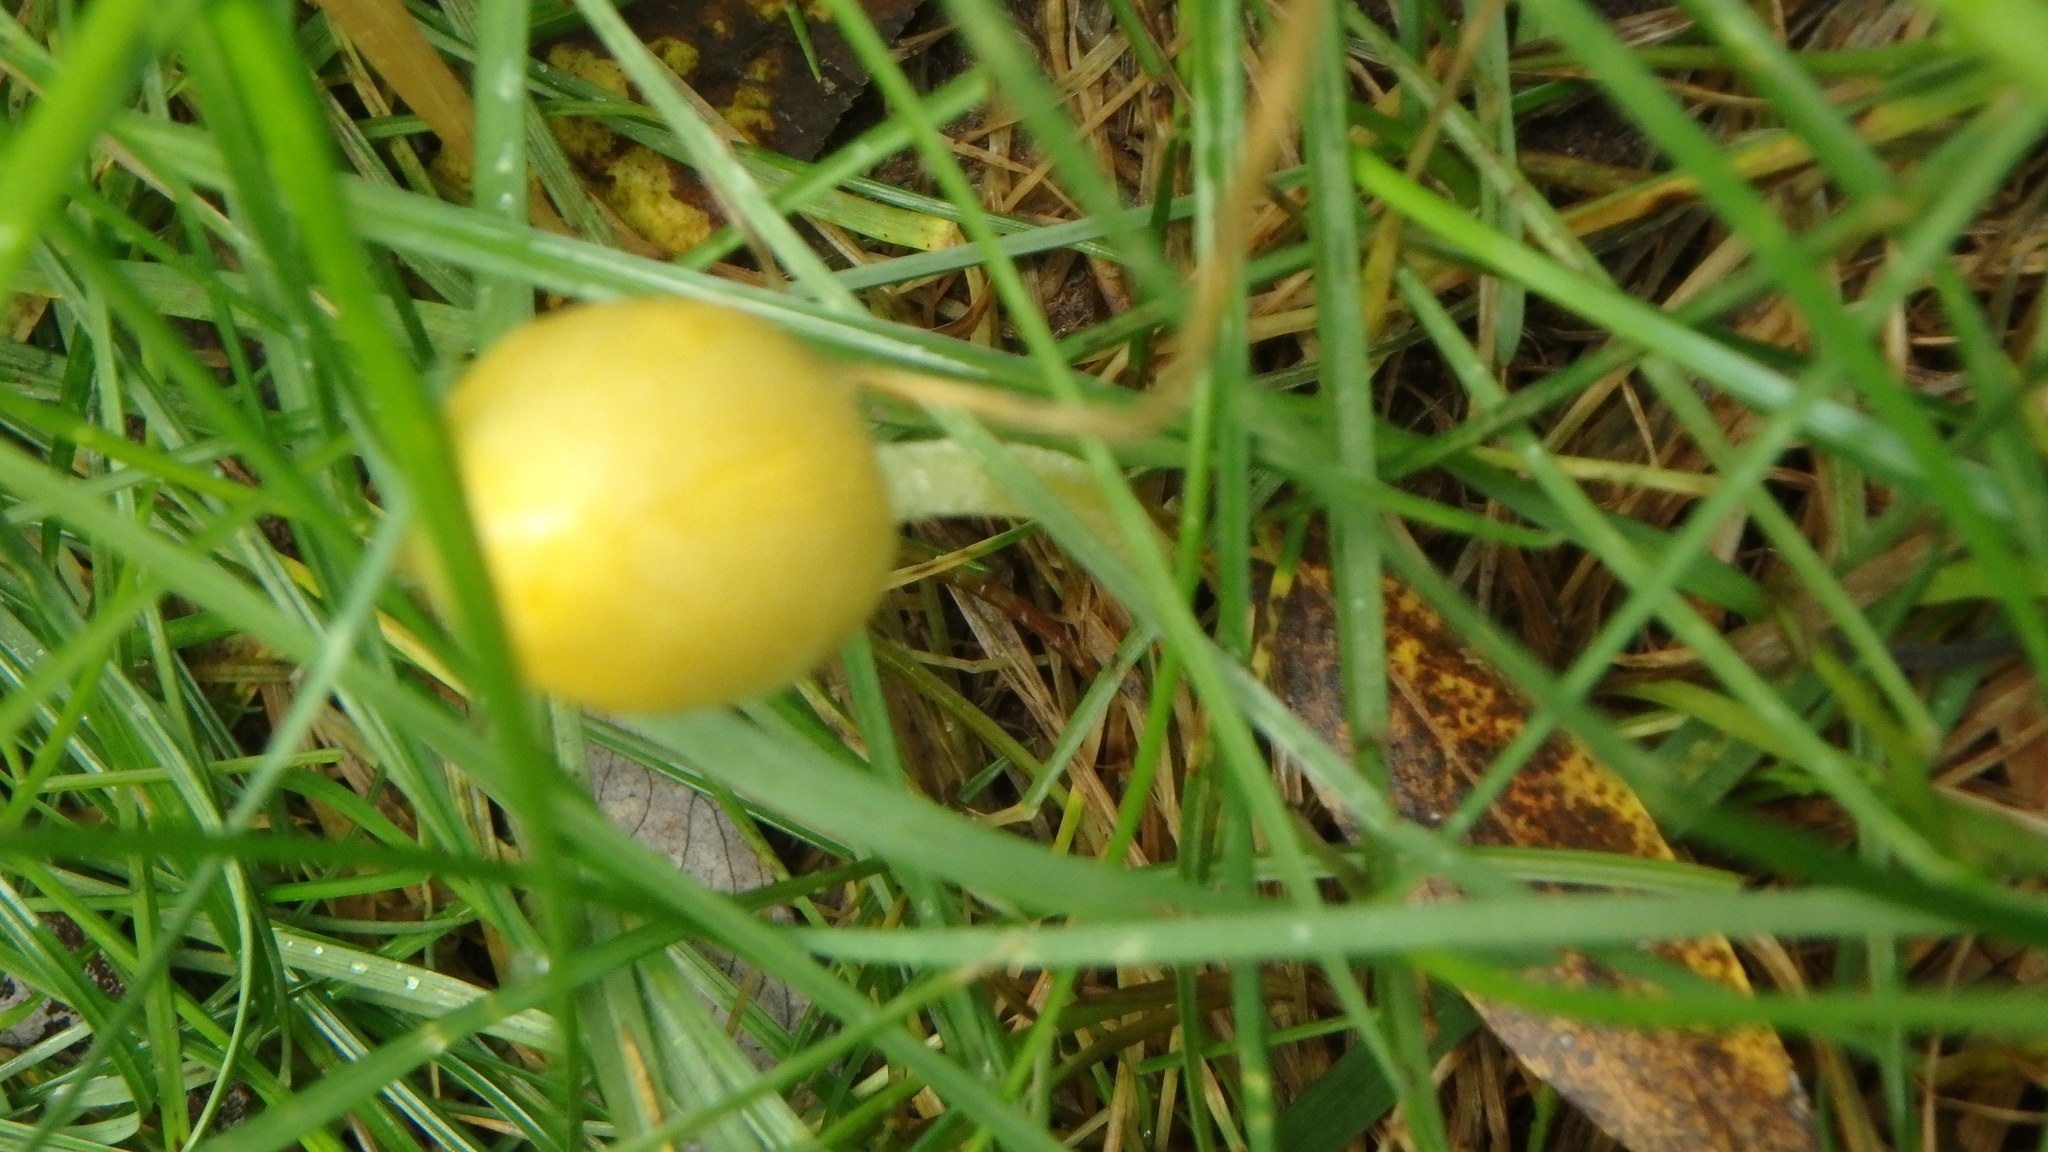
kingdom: Fungi
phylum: Basidiomycota
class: Agaricomycetes
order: Agaricales
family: Bolbitiaceae
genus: Bolbitius
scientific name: Bolbitius titubans
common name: Yellow fieldcap
